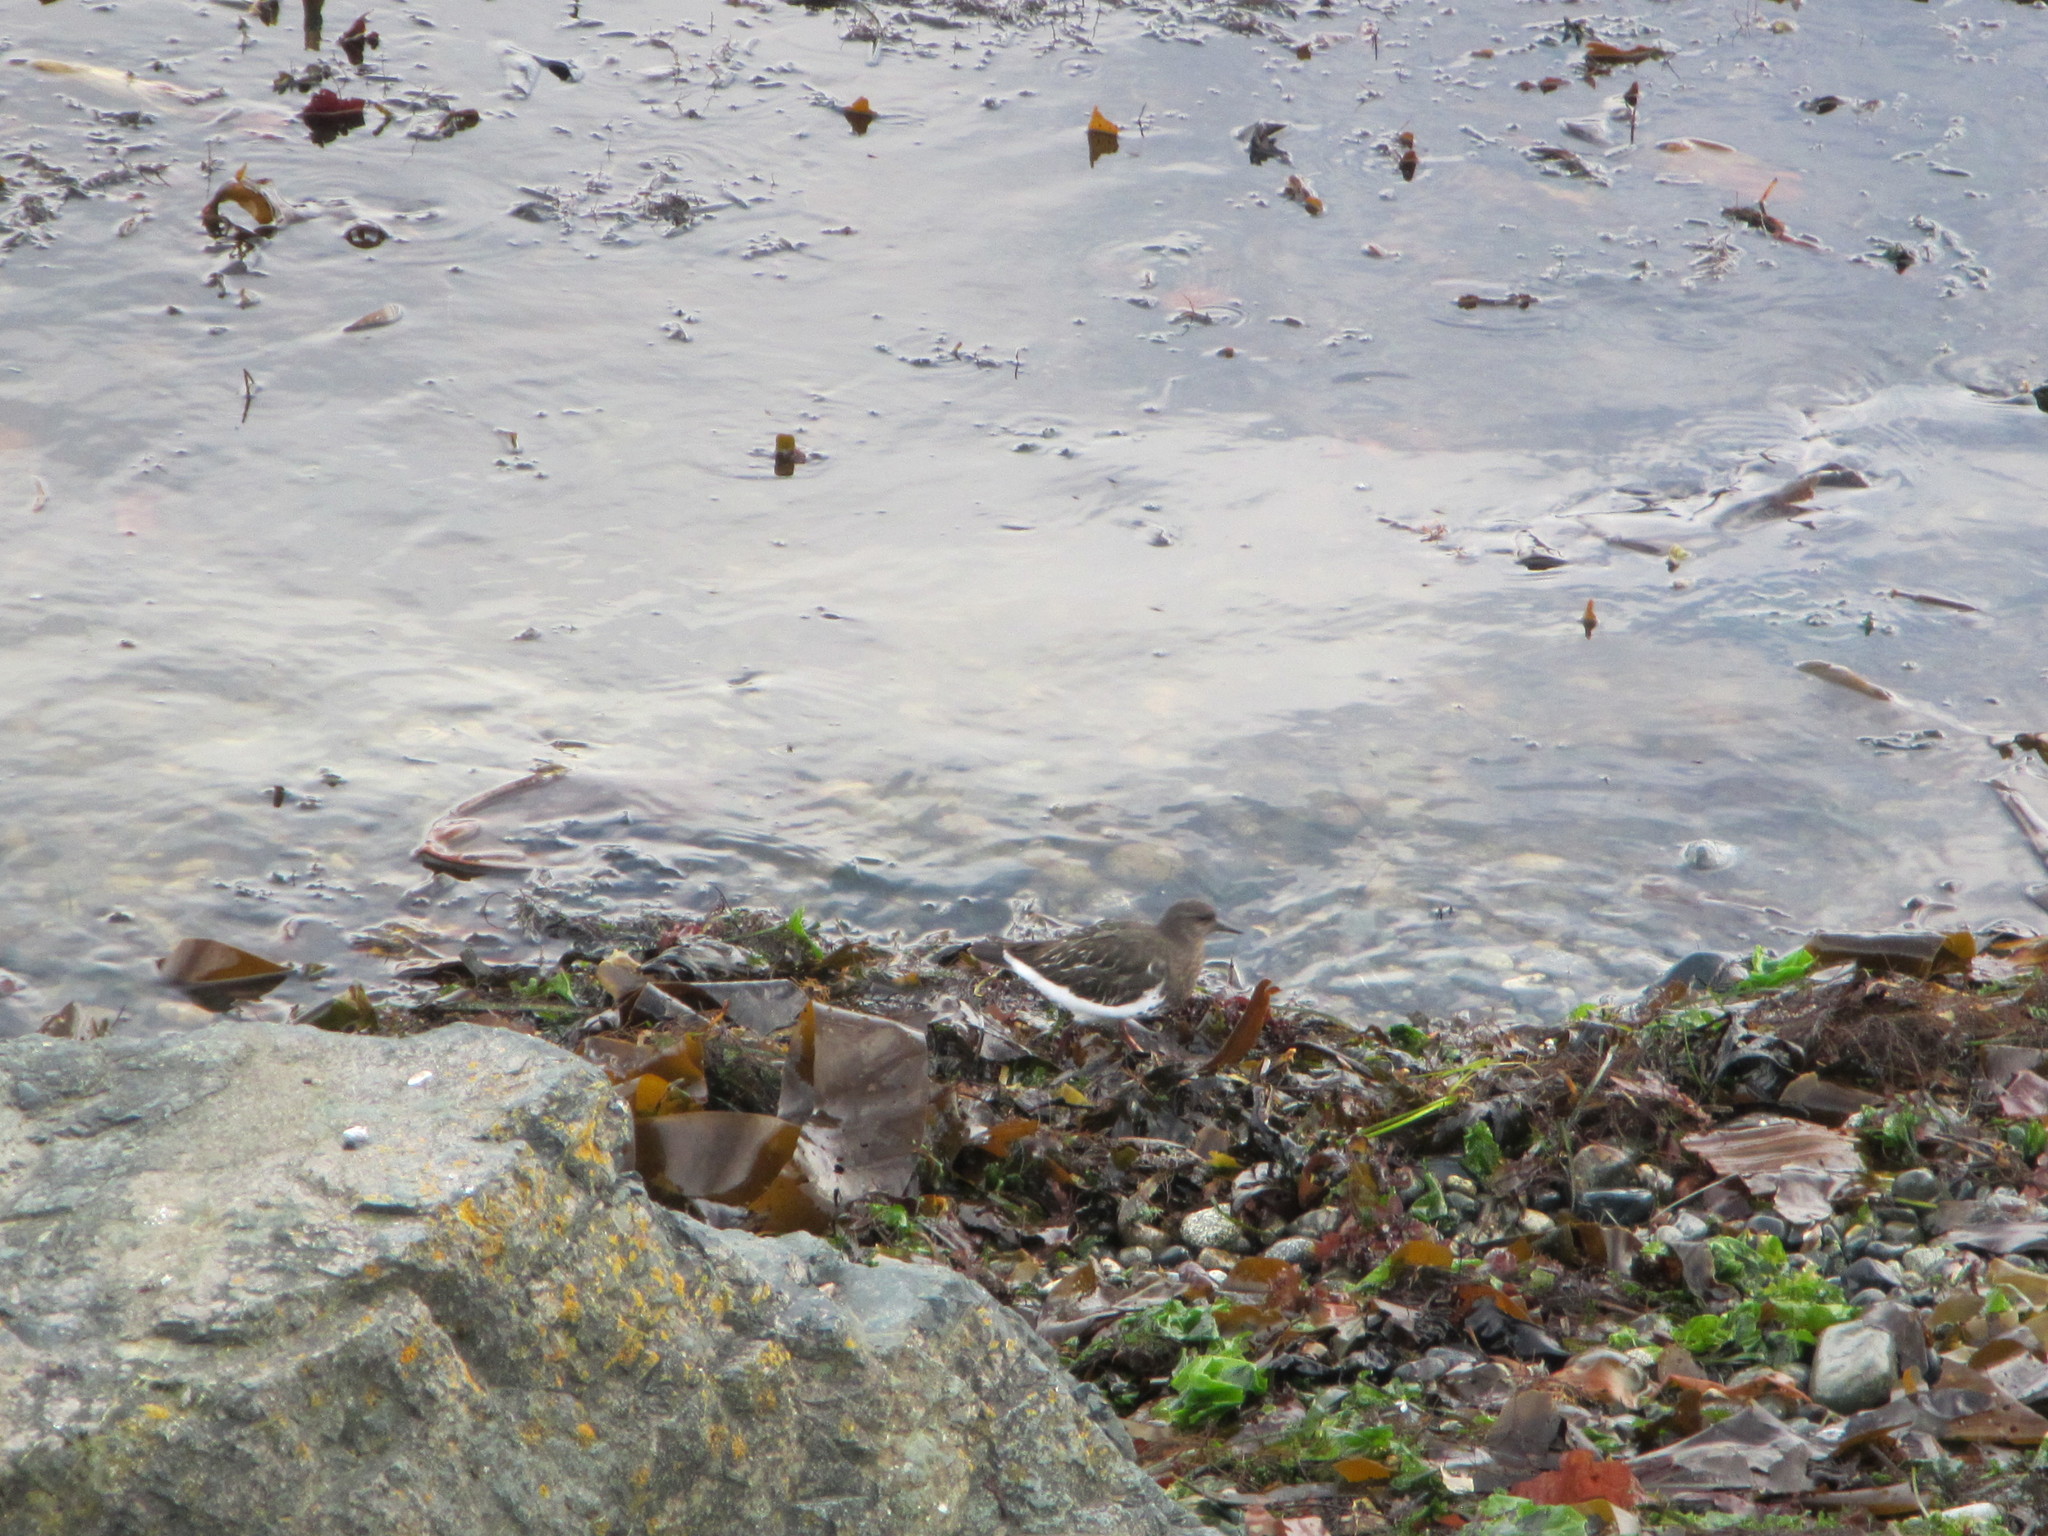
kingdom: Animalia
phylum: Chordata
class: Aves
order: Charadriiformes
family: Scolopacidae
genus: Arenaria
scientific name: Arenaria melanocephala
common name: Black turnstone
